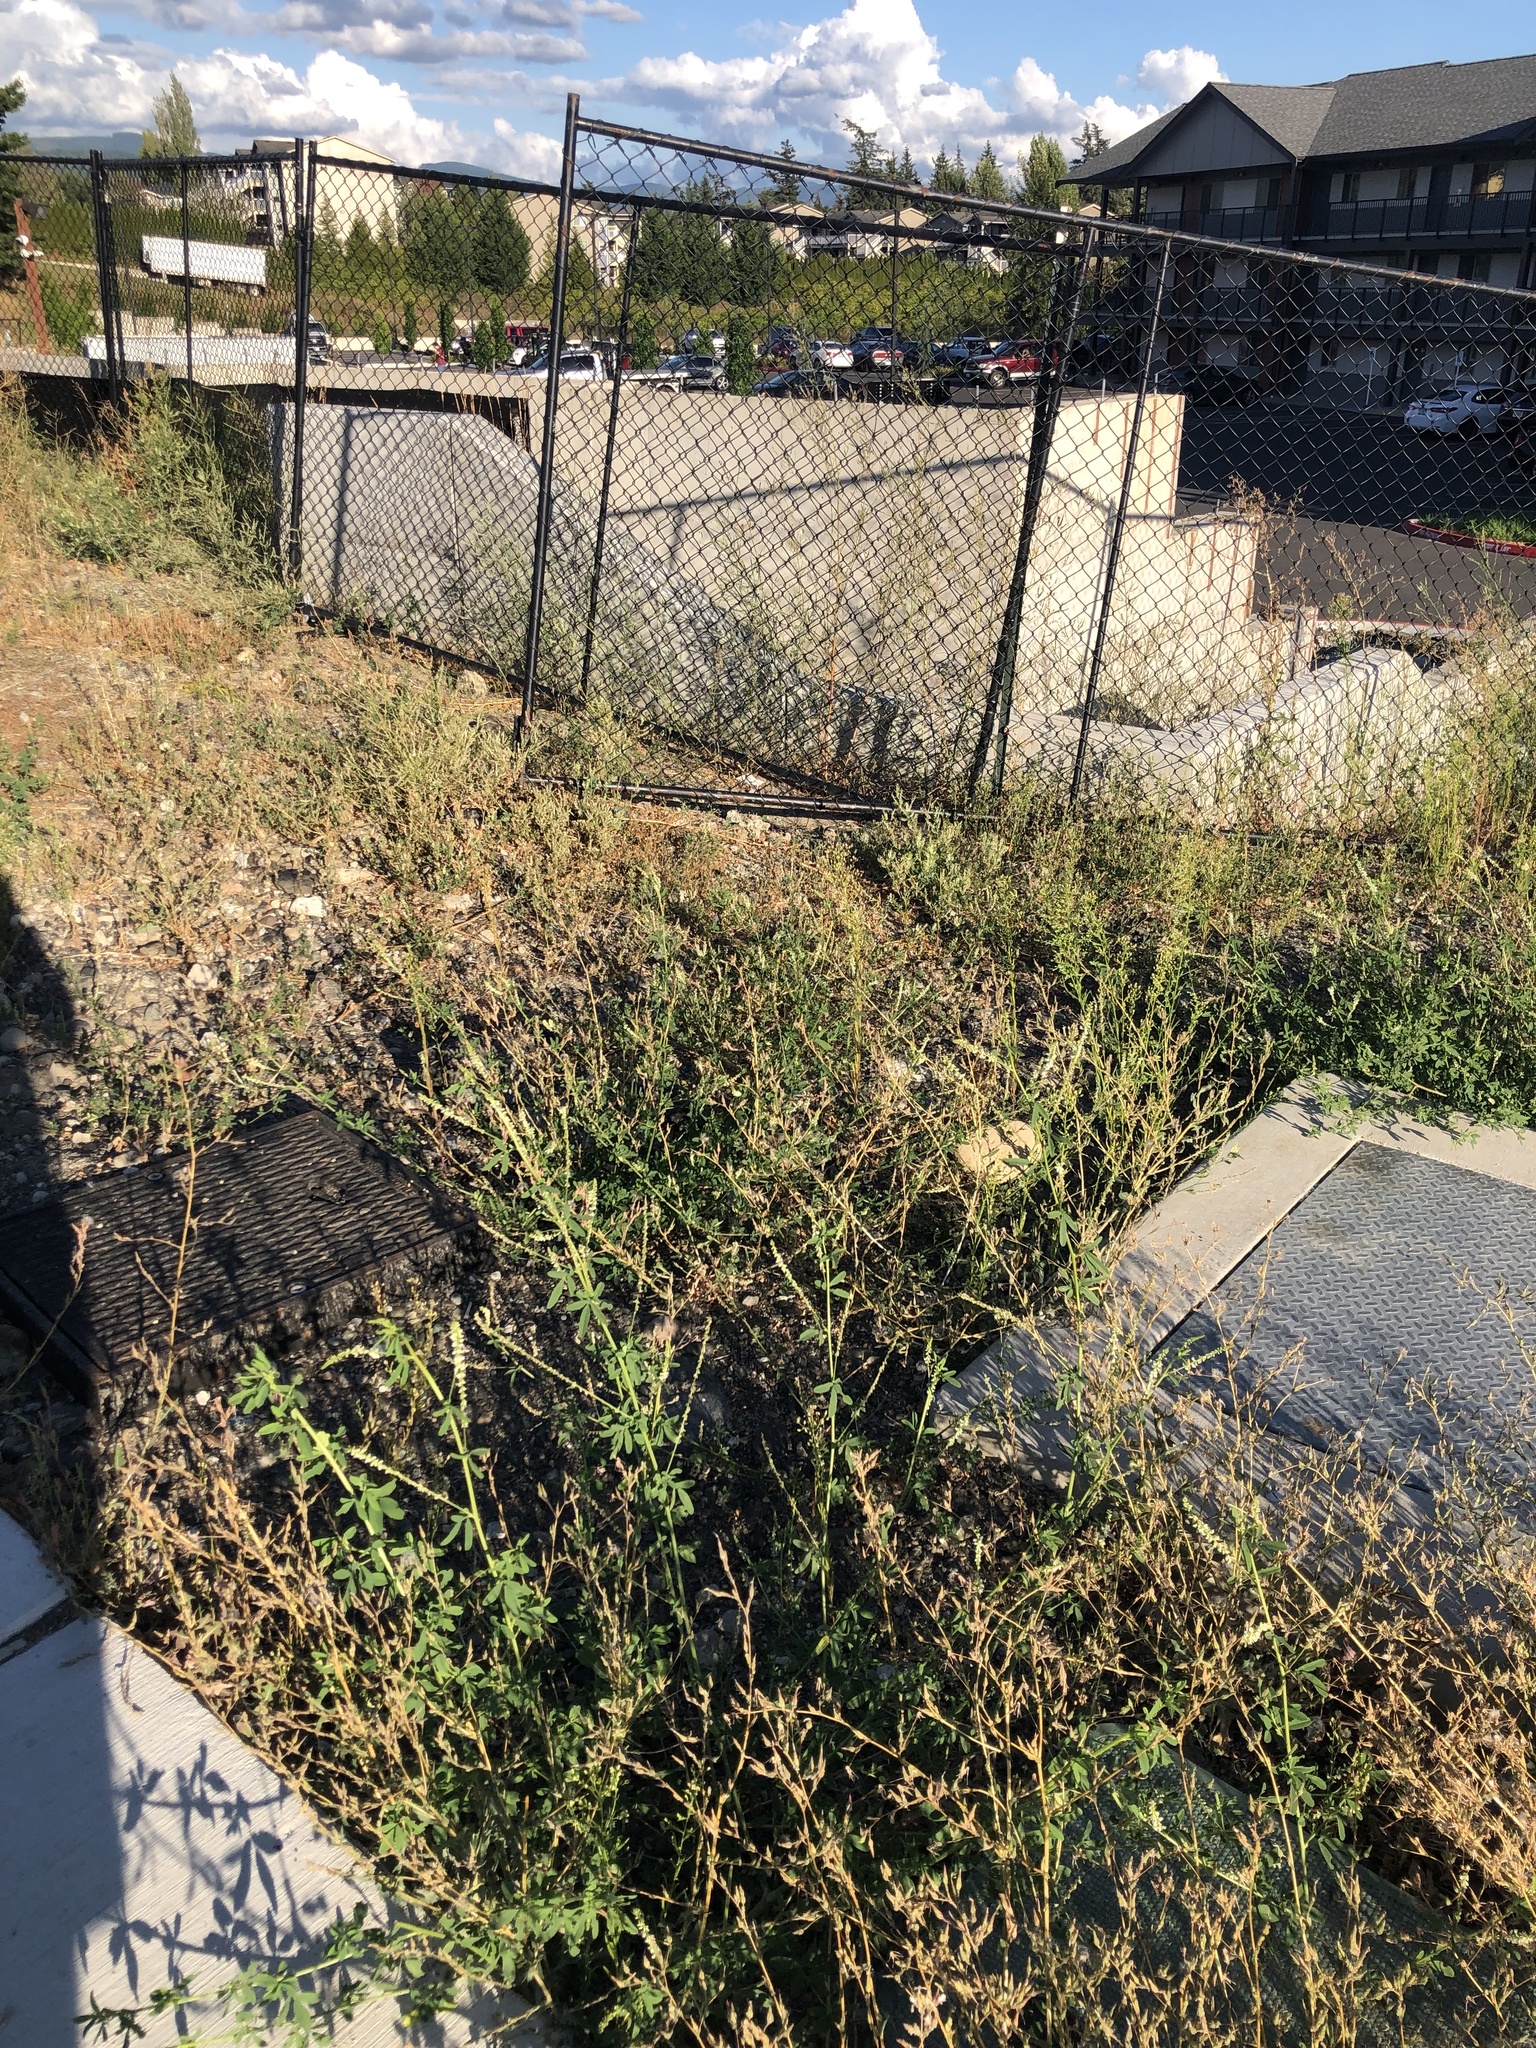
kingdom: Plantae
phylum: Tracheophyta
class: Magnoliopsida
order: Fabales
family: Fabaceae
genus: Melilotus
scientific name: Melilotus albus
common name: White melilot
